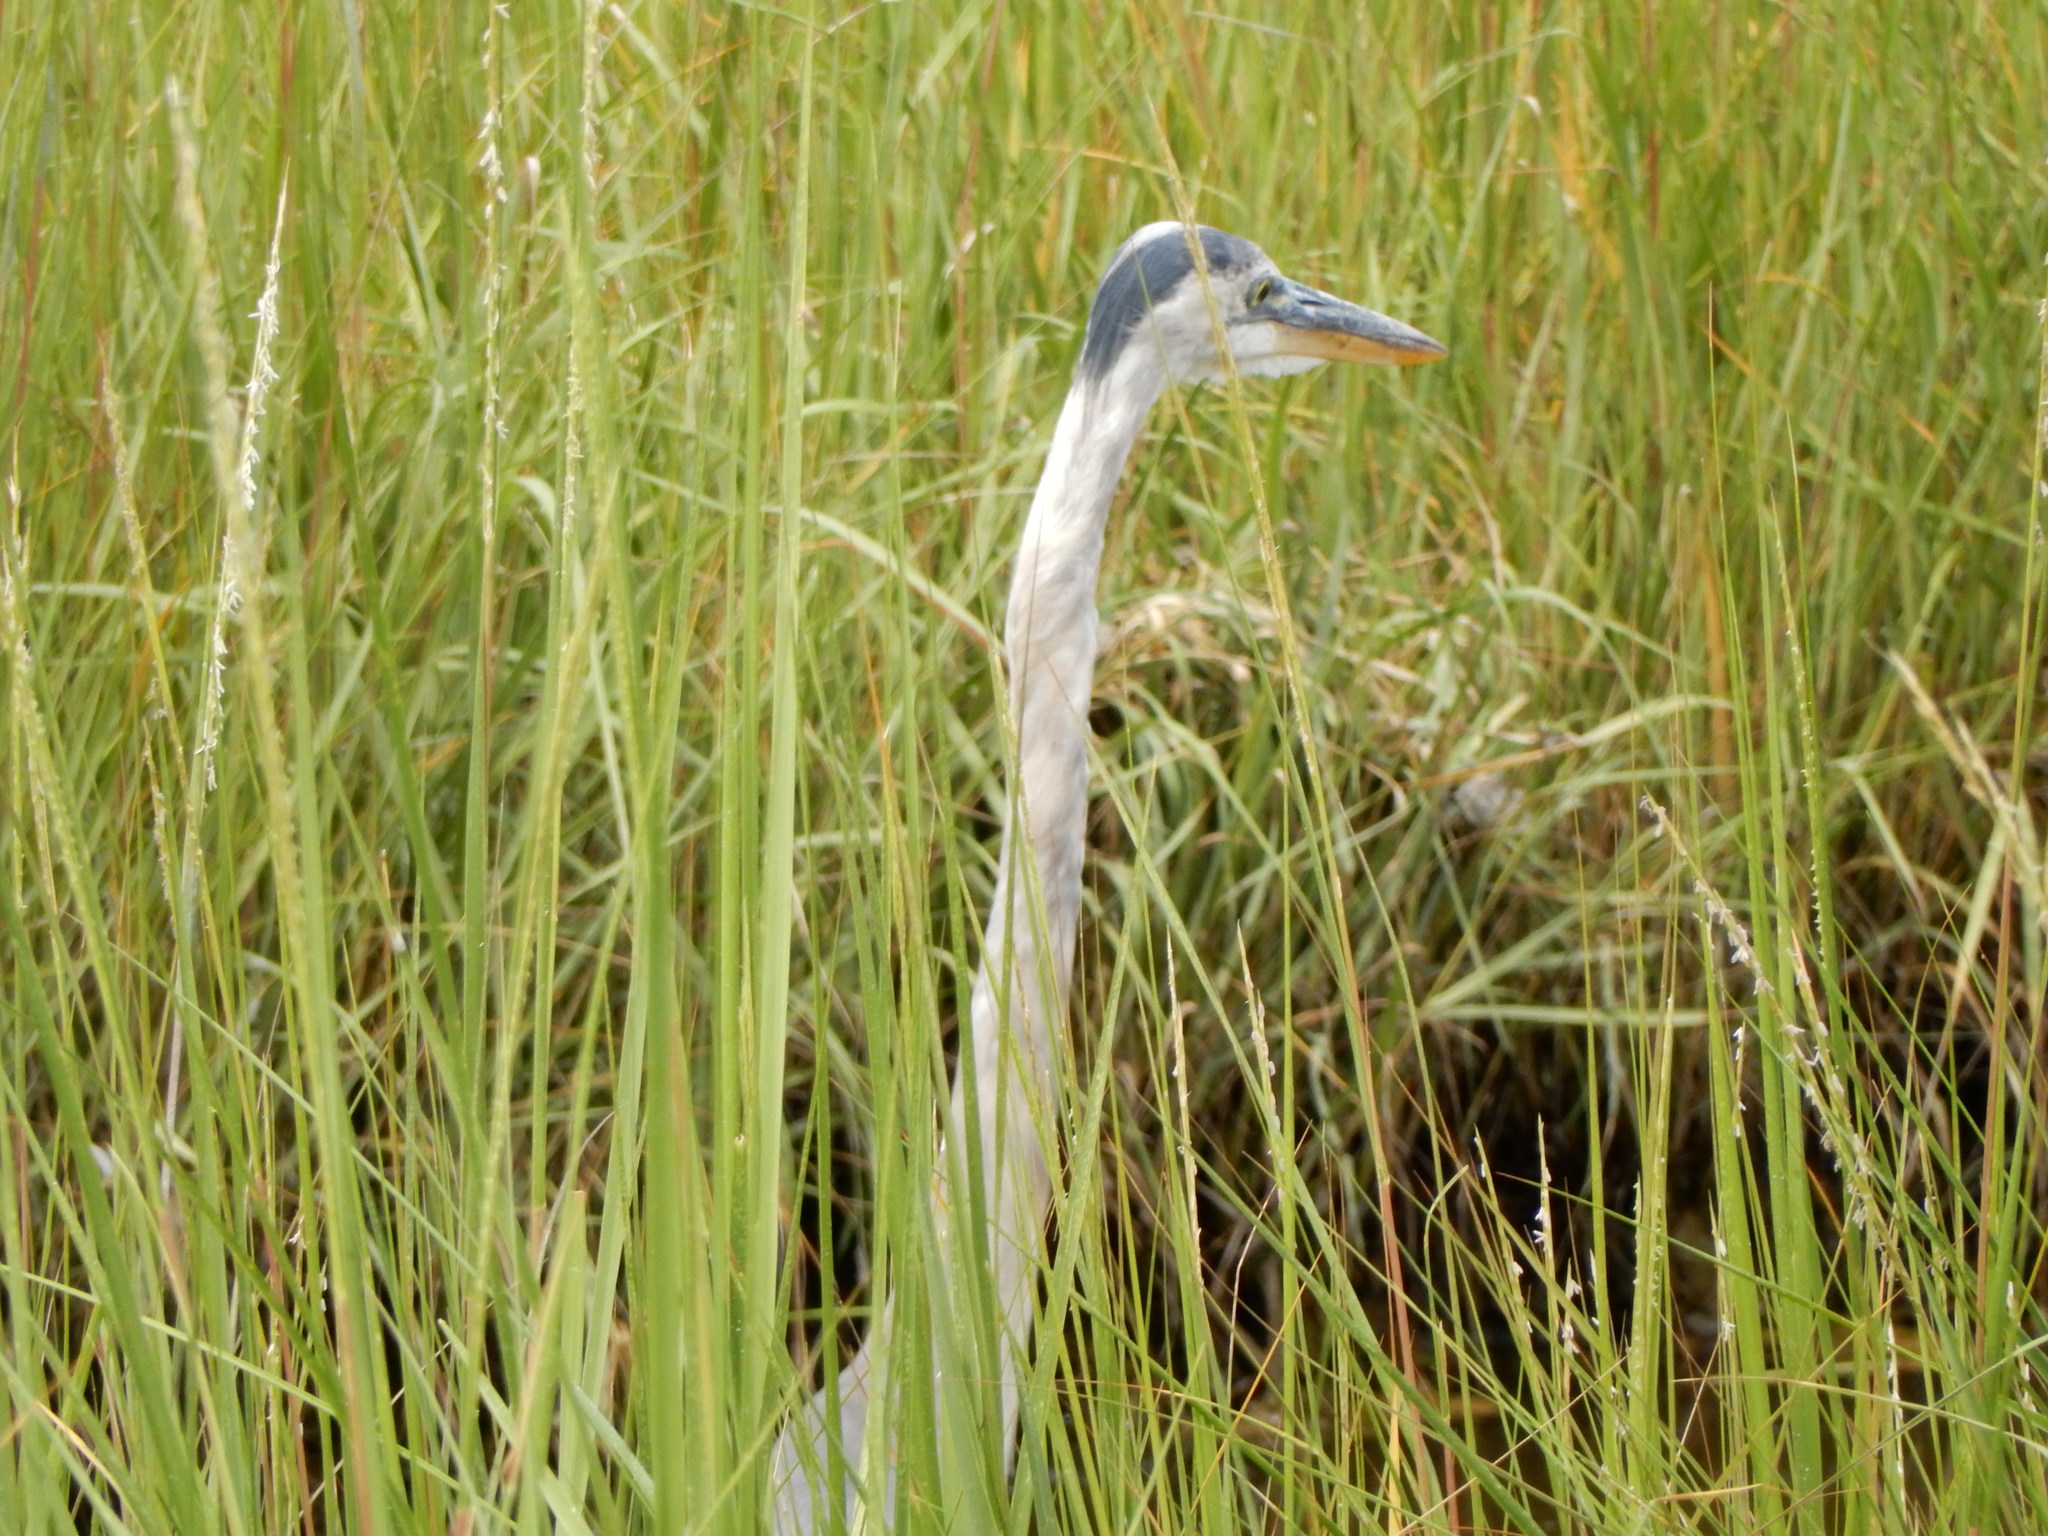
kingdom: Animalia
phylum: Chordata
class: Aves
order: Pelecaniformes
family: Ardeidae
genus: Ardea
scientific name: Ardea herodias
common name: Great blue heron
